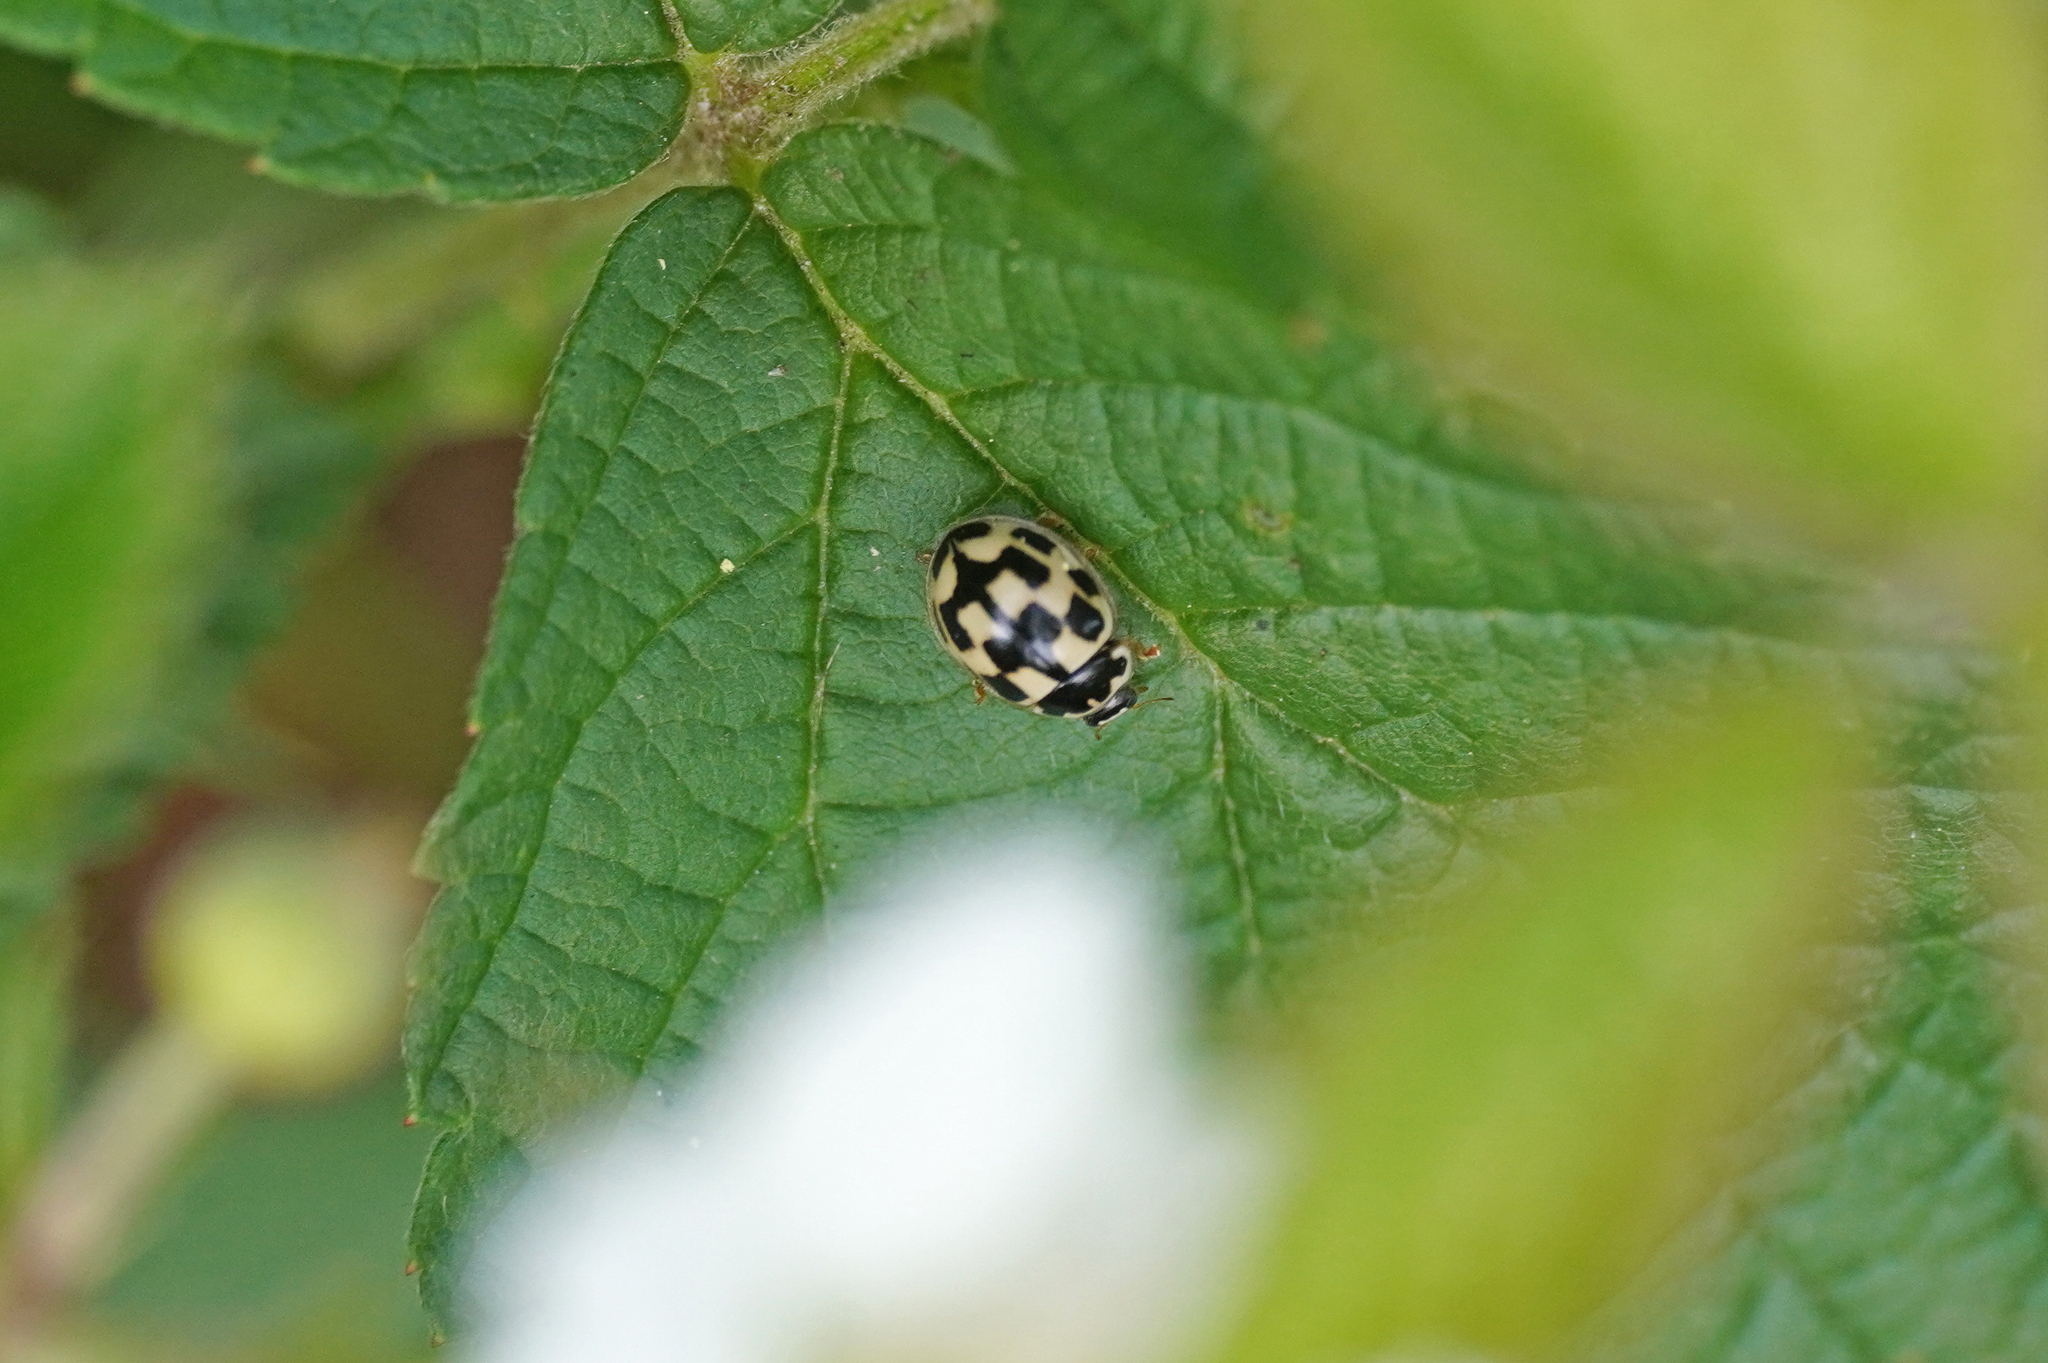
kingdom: Animalia
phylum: Arthropoda
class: Insecta
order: Coleoptera
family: Coccinellidae
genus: Propylaea
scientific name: Propylaea quatuordecimpunctata
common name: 14-spotted ladybird beetle
